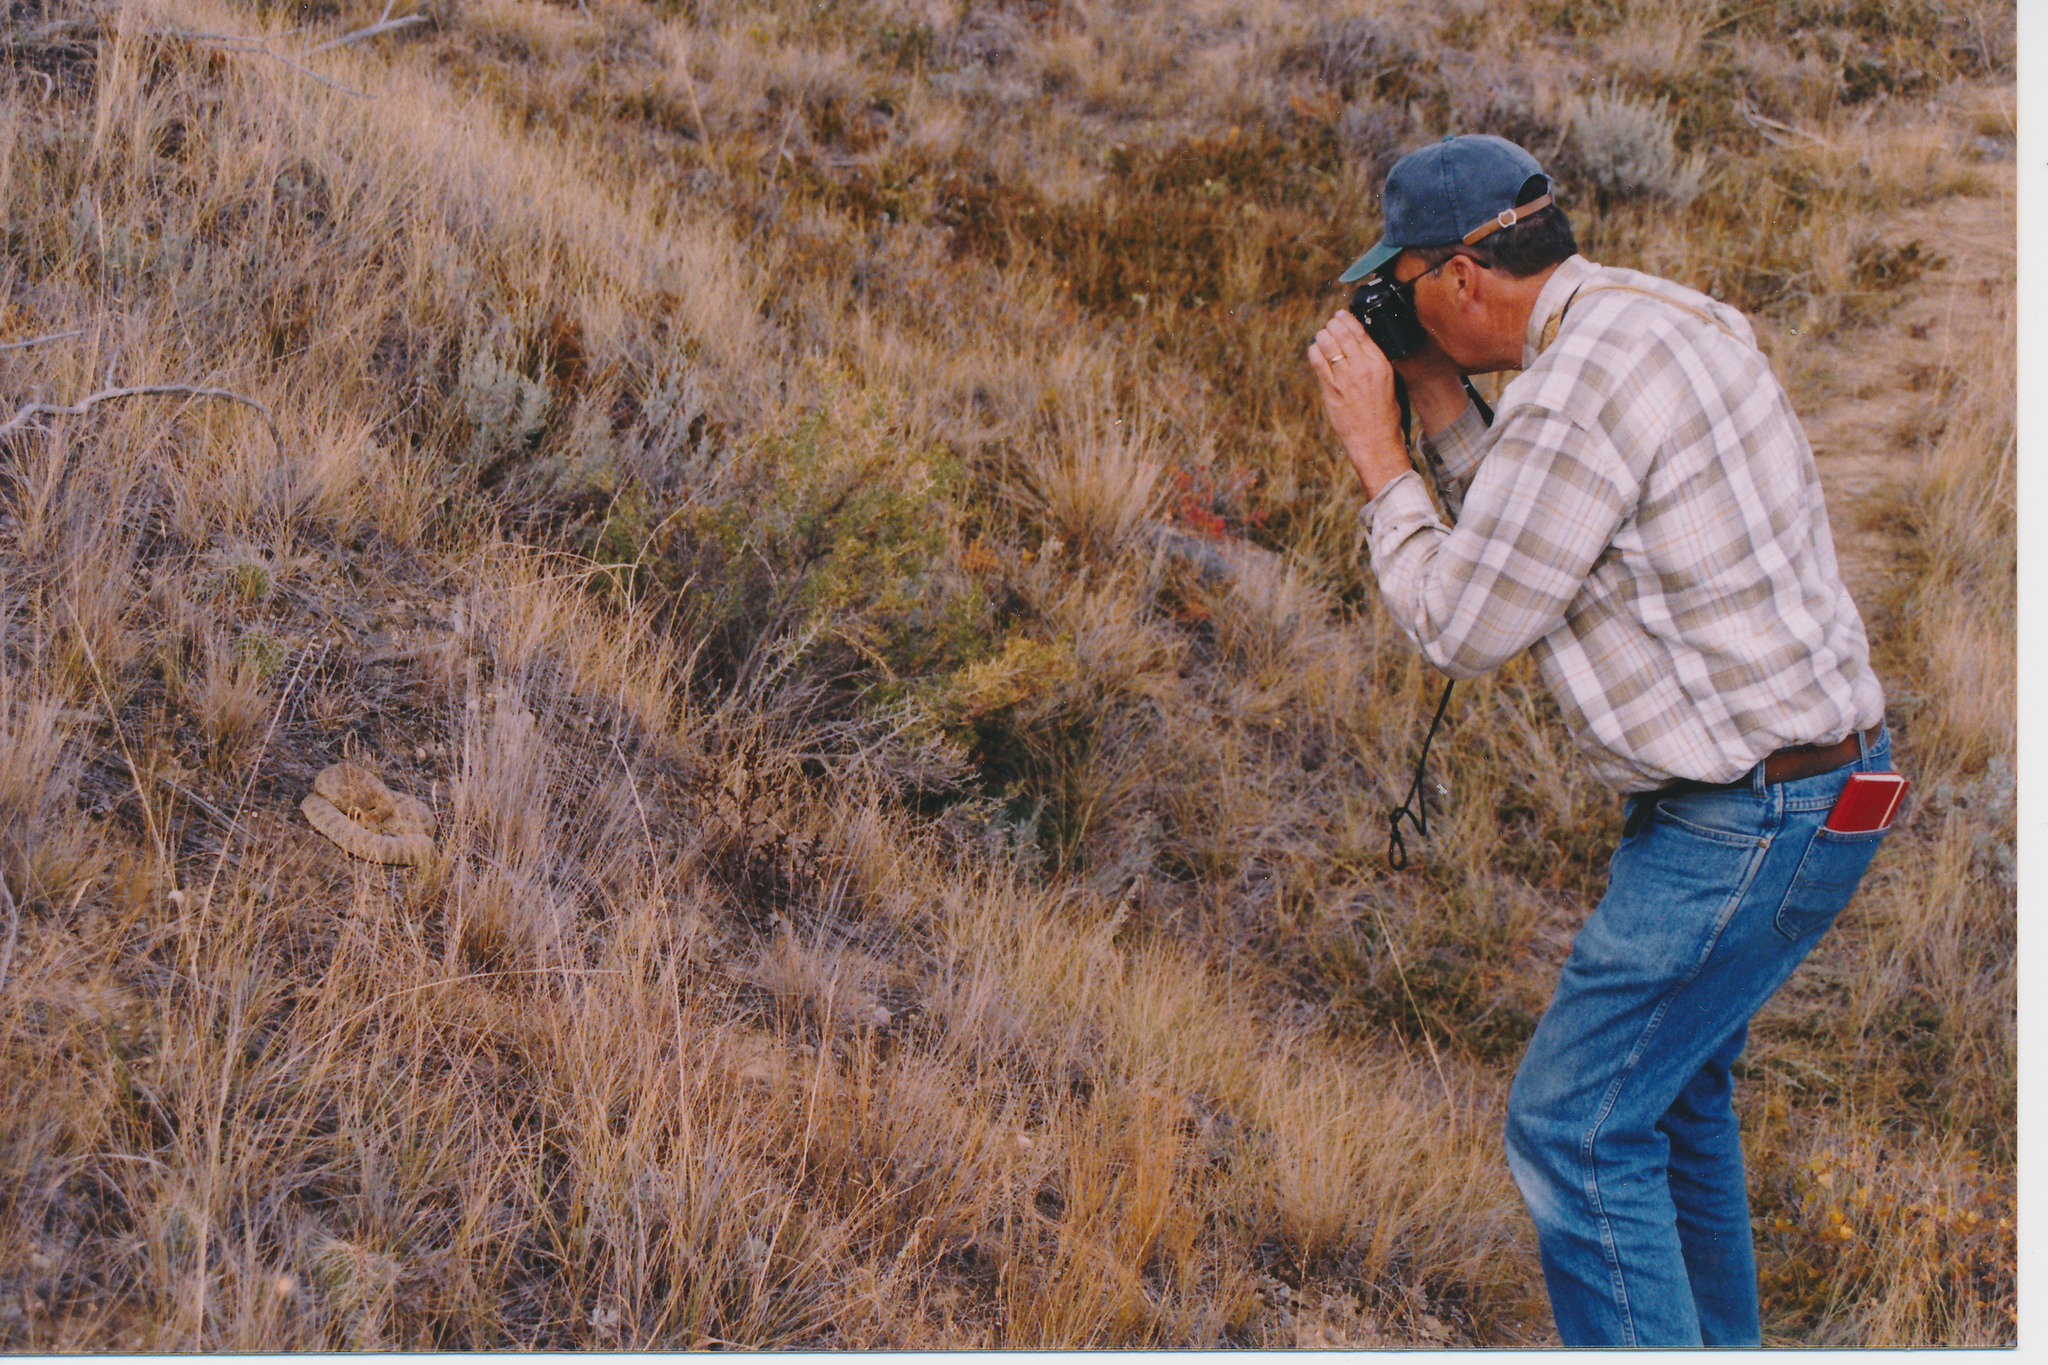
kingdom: Animalia
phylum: Chordata
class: Squamata
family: Viperidae
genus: Crotalus
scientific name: Crotalus viridis
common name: Prairie rattlesnake
